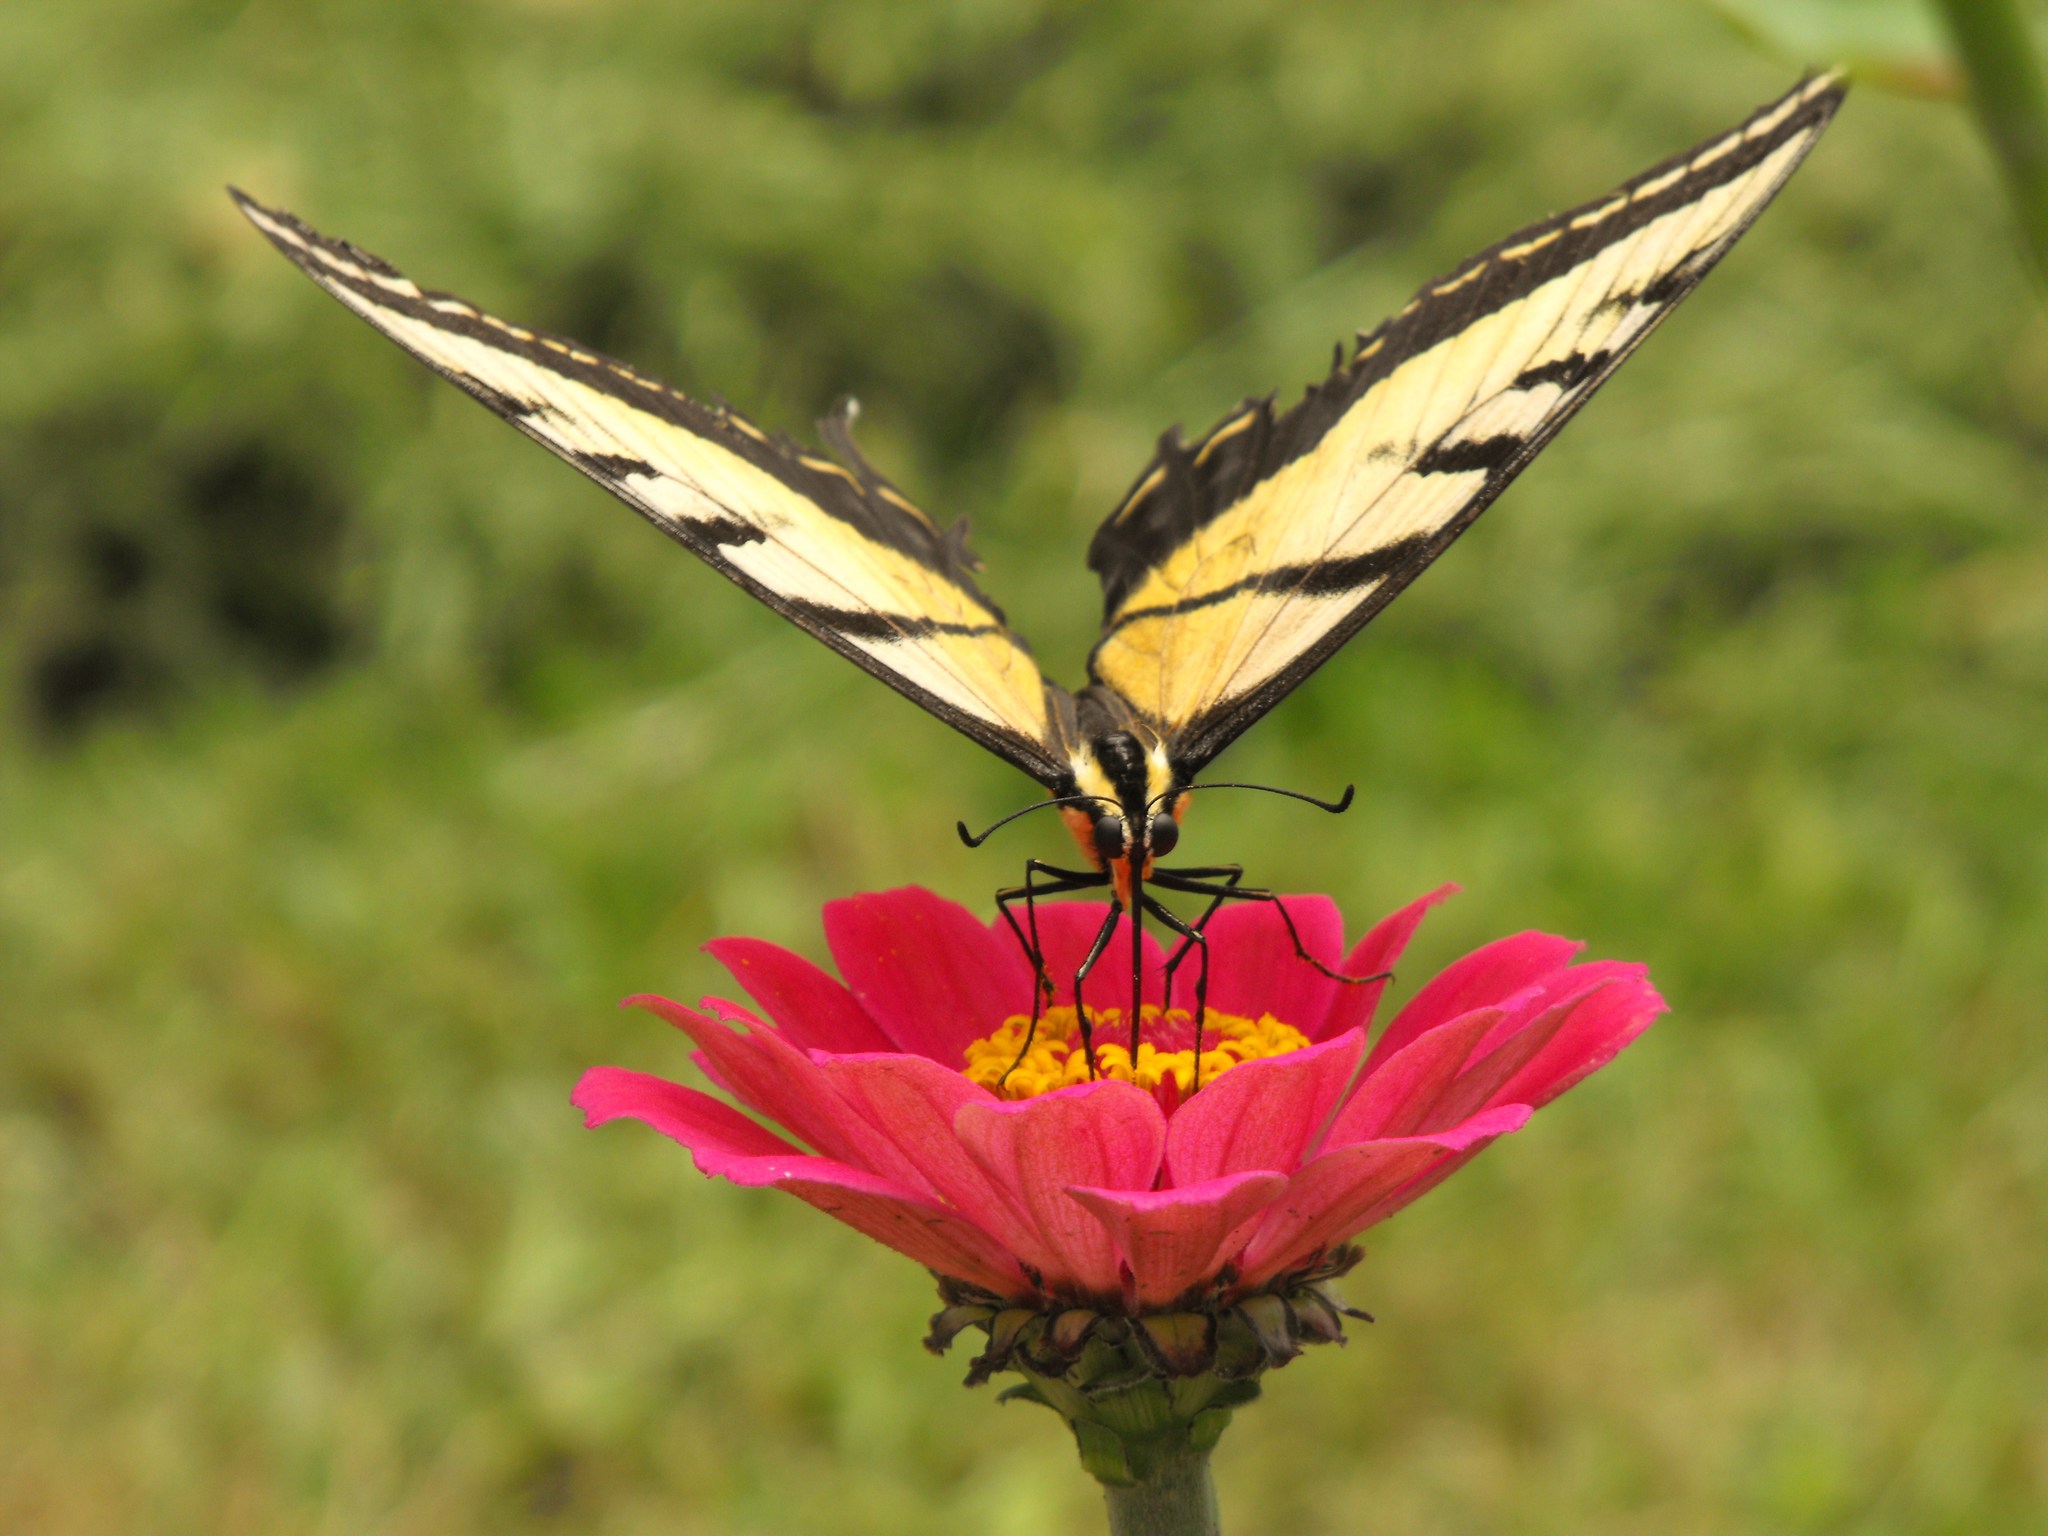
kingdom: Animalia
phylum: Arthropoda
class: Insecta
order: Lepidoptera
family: Papilionidae
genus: Papilio
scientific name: Papilio multicaudata
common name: Two-tailed tiger swallowtail
